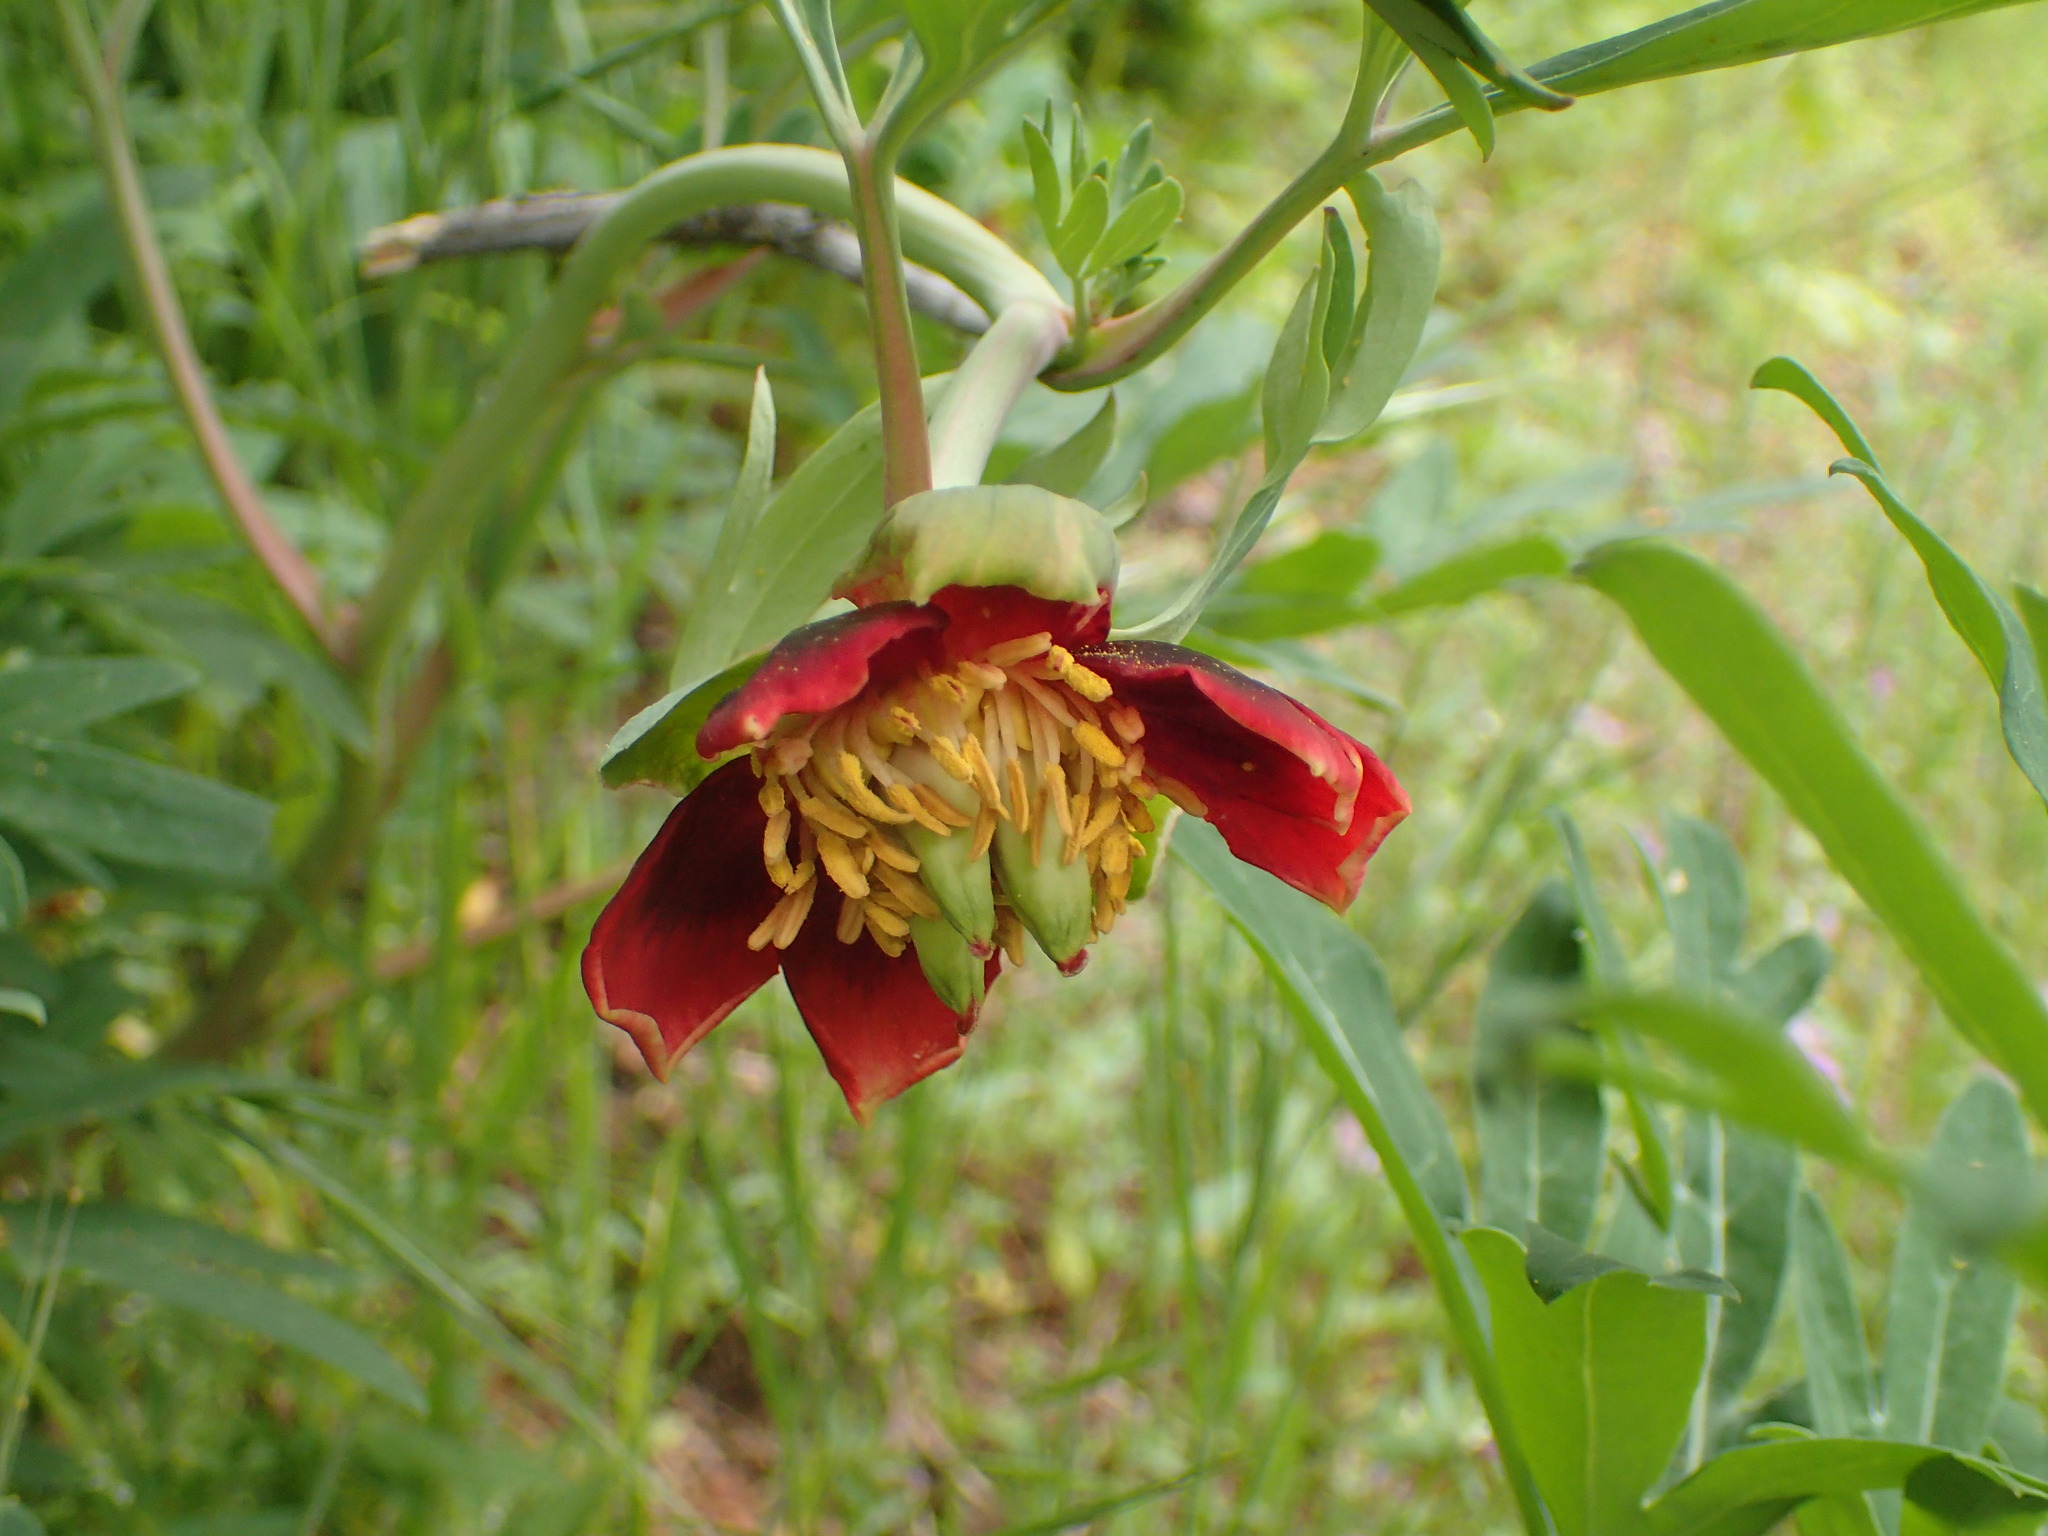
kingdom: Plantae
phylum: Tracheophyta
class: Magnoliopsida
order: Saxifragales
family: Paeoniaceae
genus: Paeonia
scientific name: Paeonia californica
